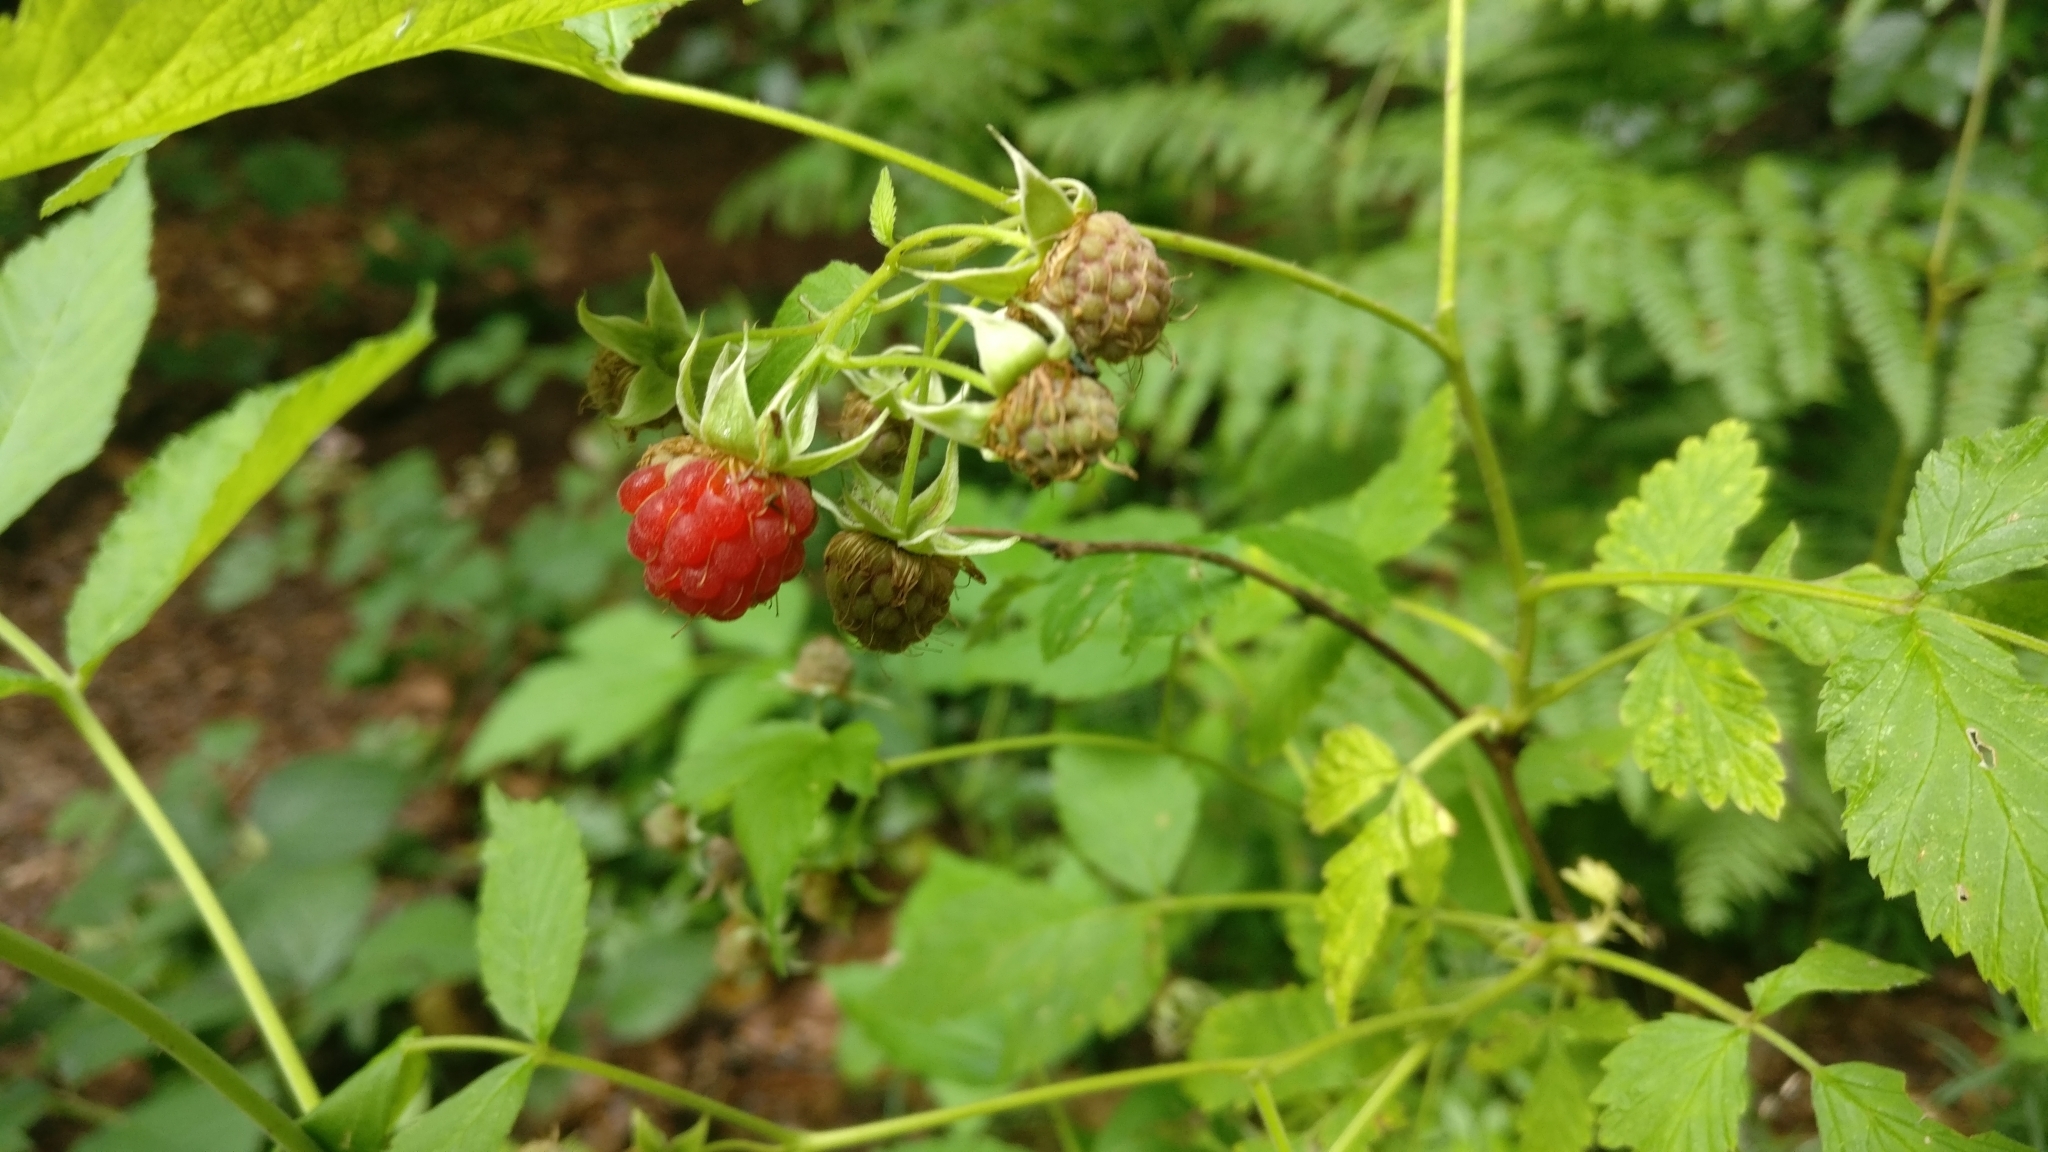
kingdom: Plantae
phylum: Tracheophyta
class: Magnoliopsida
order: Rosales
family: Rosaceae
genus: Rubus
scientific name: Rubus idaeus
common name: Raspberry
